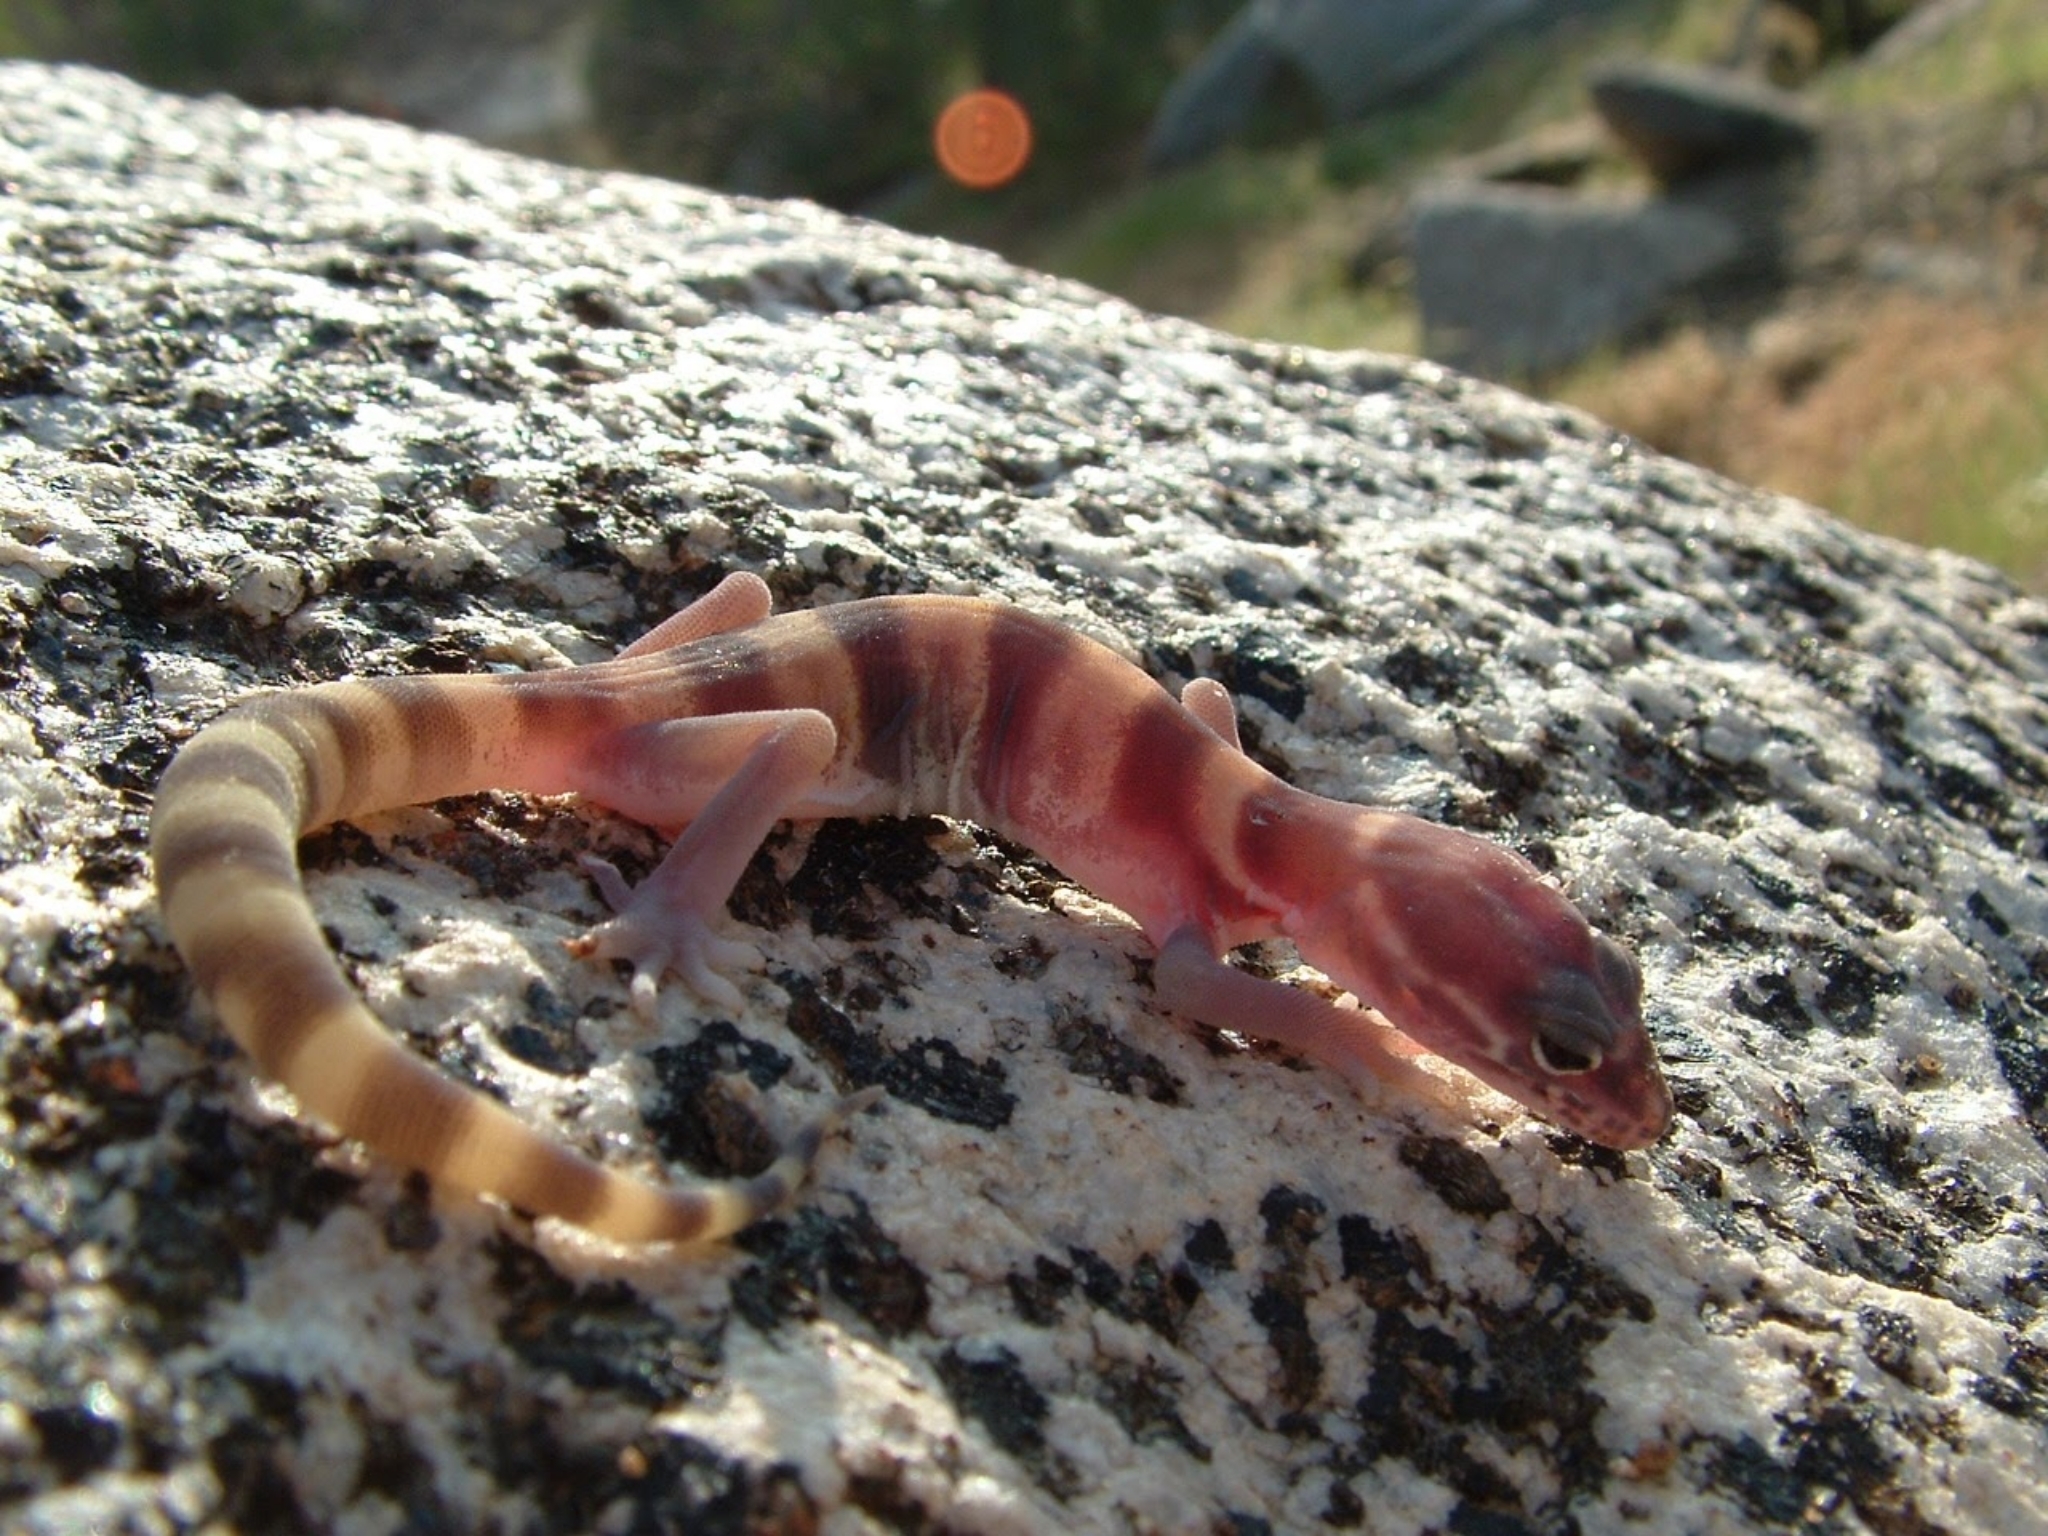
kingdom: Animalia
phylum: Chordata
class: Squamata
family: Eublepharidae
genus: Coleonyx
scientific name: Coleonyx variegatus
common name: Western banded gecko
